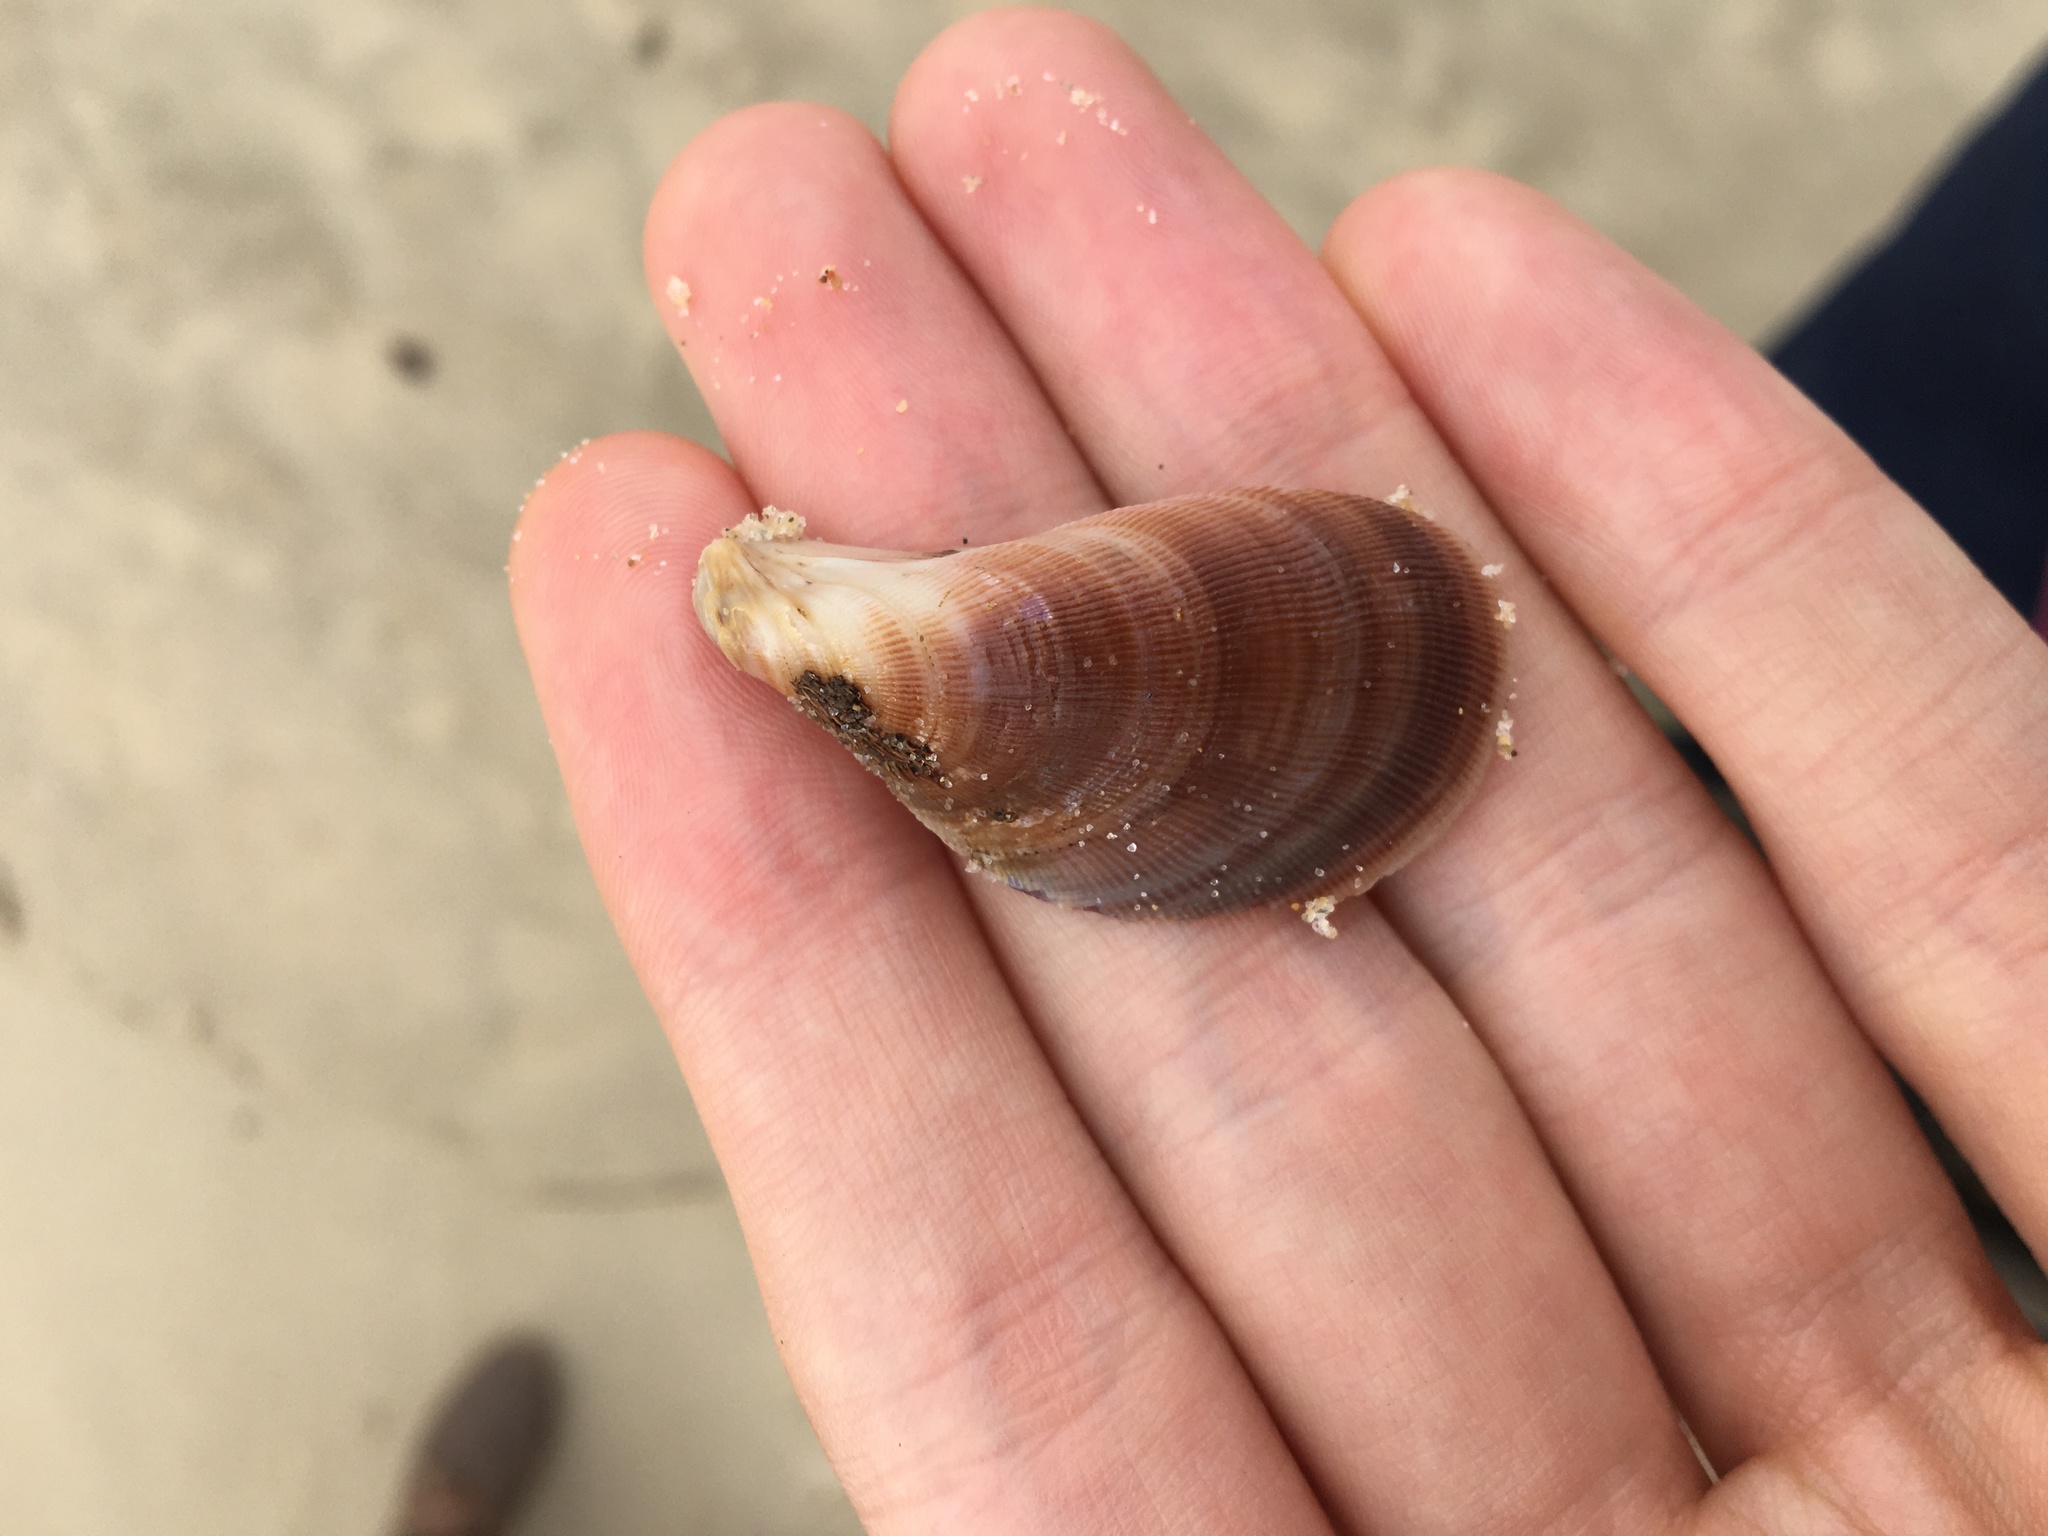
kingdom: Animalia
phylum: Mollusca
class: Bivalvia
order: Mytilida
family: Mytilidae
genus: Trichomya
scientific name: Trichomya hirsuta
